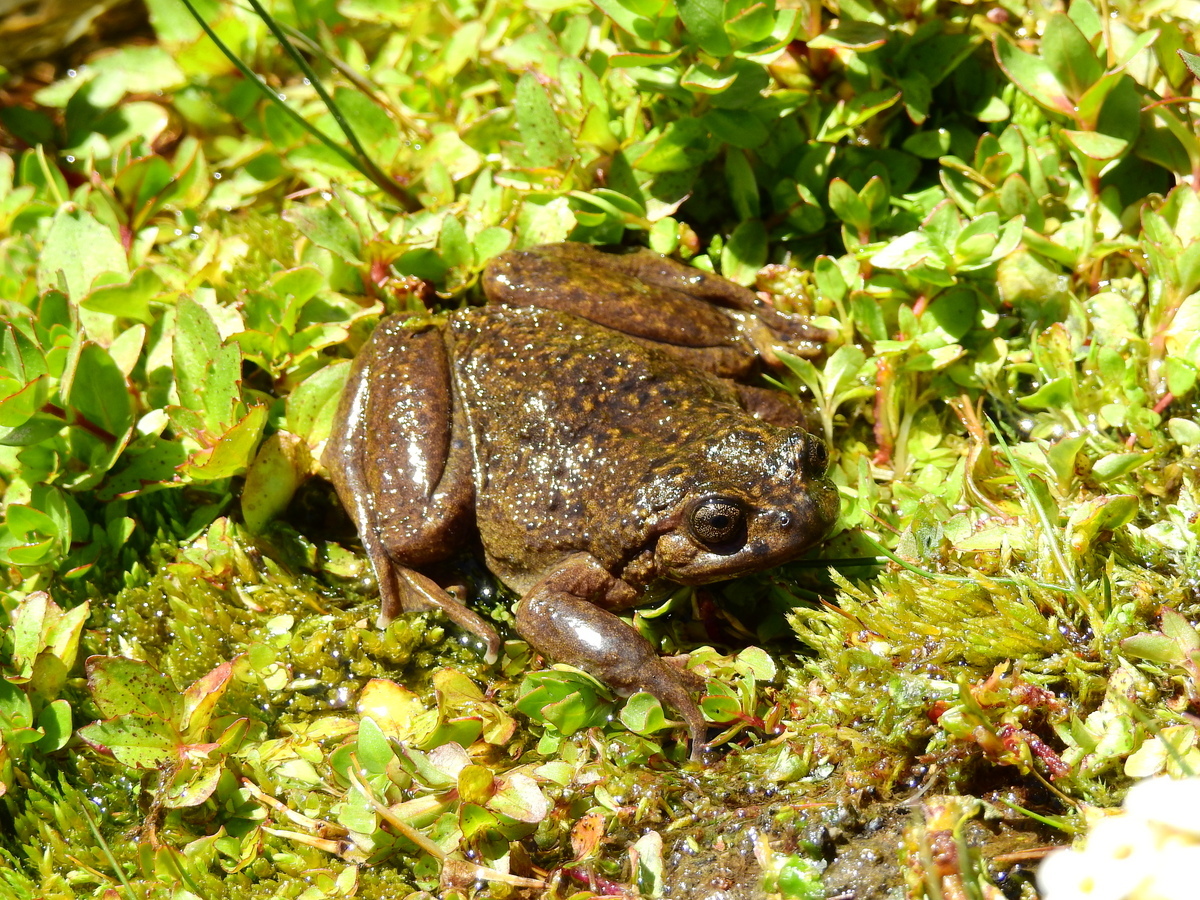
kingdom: Animalia
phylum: Chordata
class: Amphibia
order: Anura
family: Alsodidae
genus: Alsodes
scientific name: Alsodes pehuenche
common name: Pehuenche spiny-chest frog
